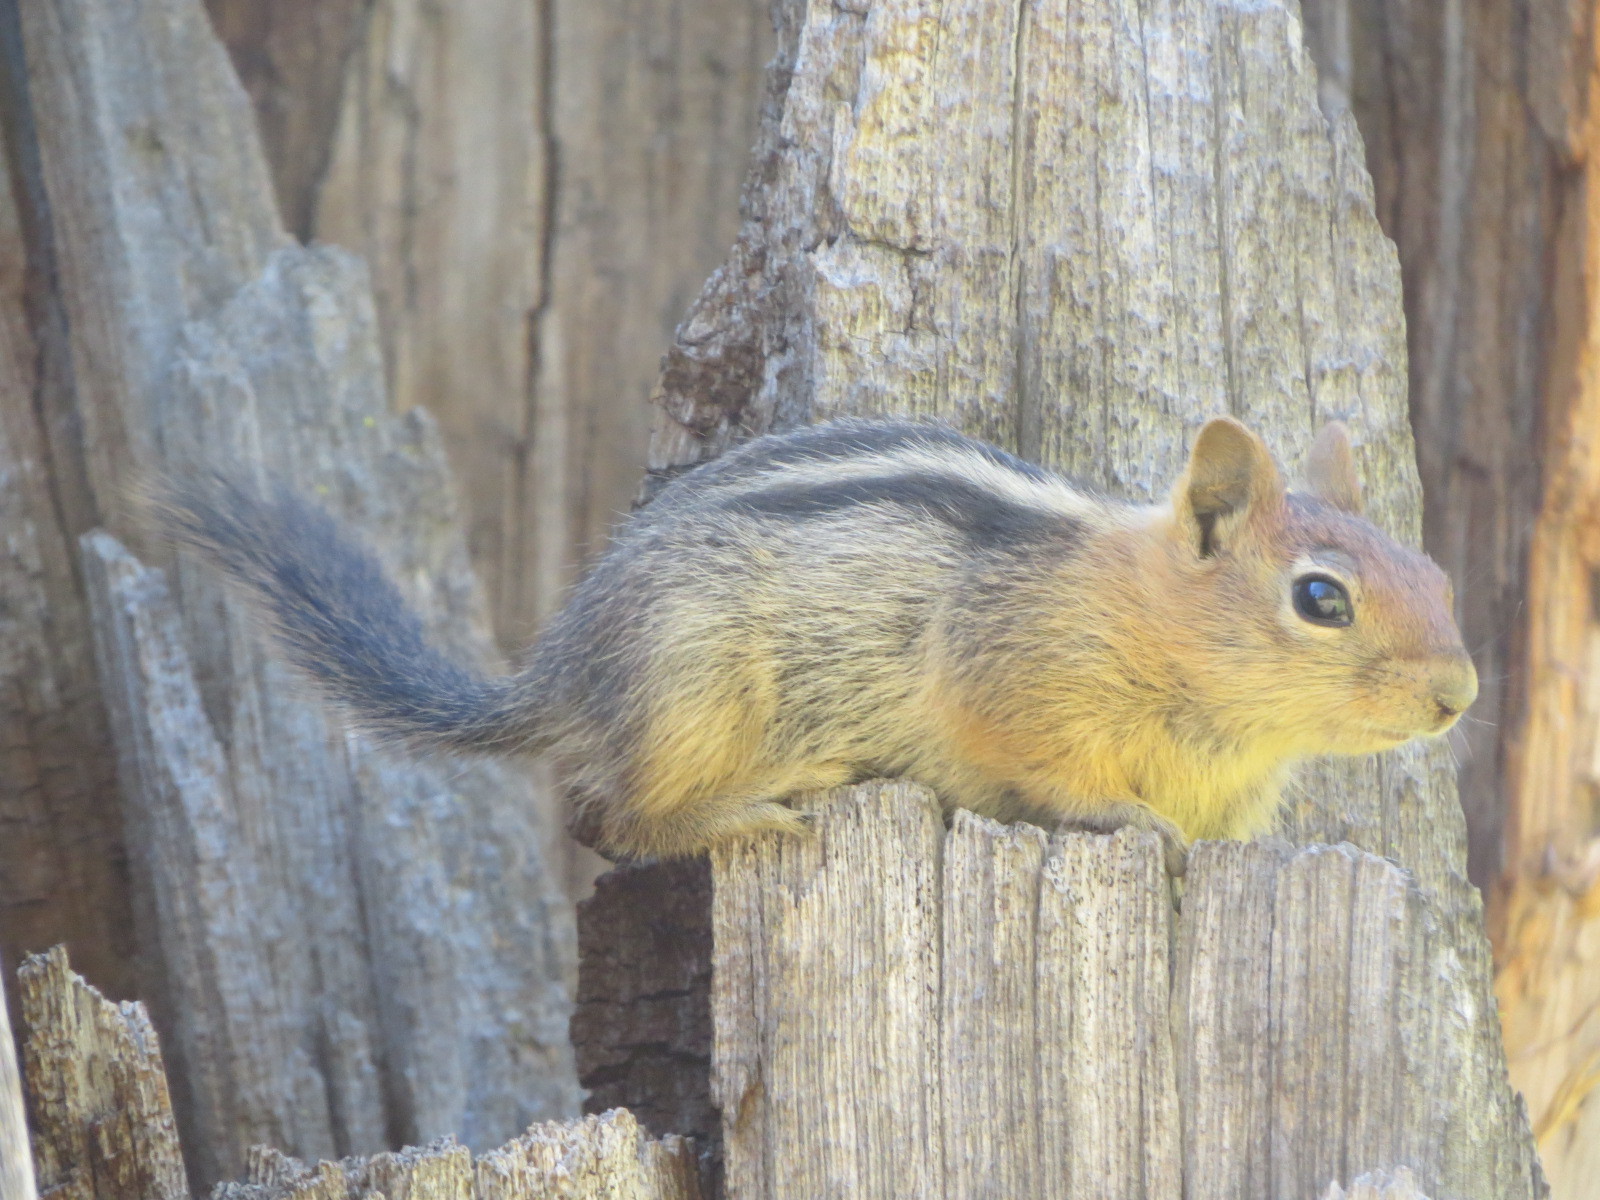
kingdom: Animalia
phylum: Chordata
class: Mammalia
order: Rodentia
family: Sciuridae
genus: Callospermophilus
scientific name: Callospermophilus lateralis
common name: Golden-mantled ground squirrel
